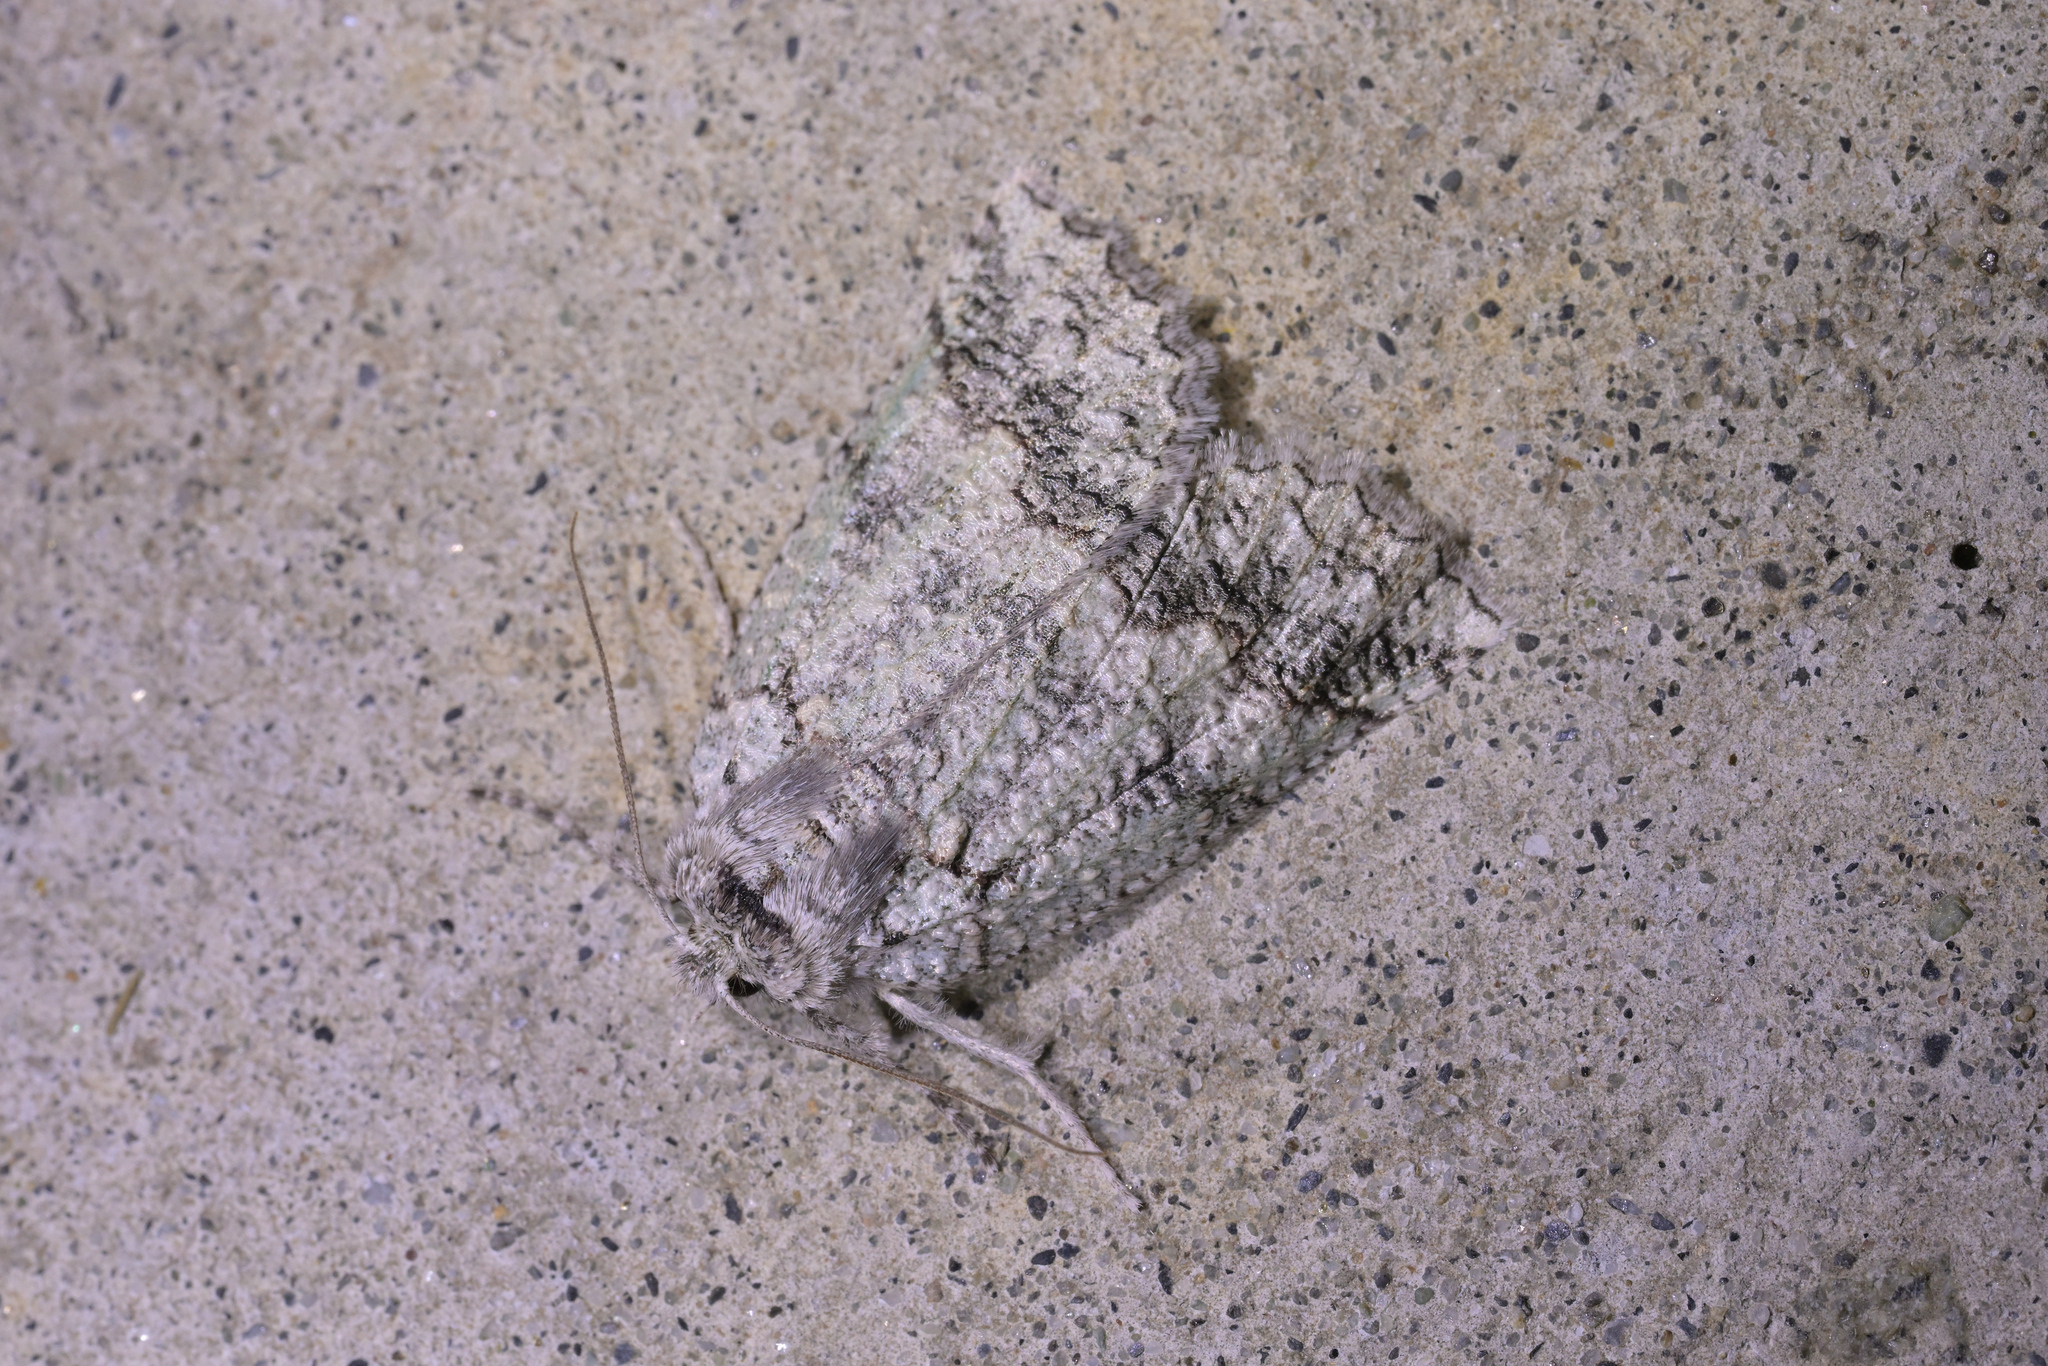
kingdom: Animalia
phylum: Arthropoda
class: Insecta
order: Lepidoptera
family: Geometridae
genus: Declana
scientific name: Declana floccosa
